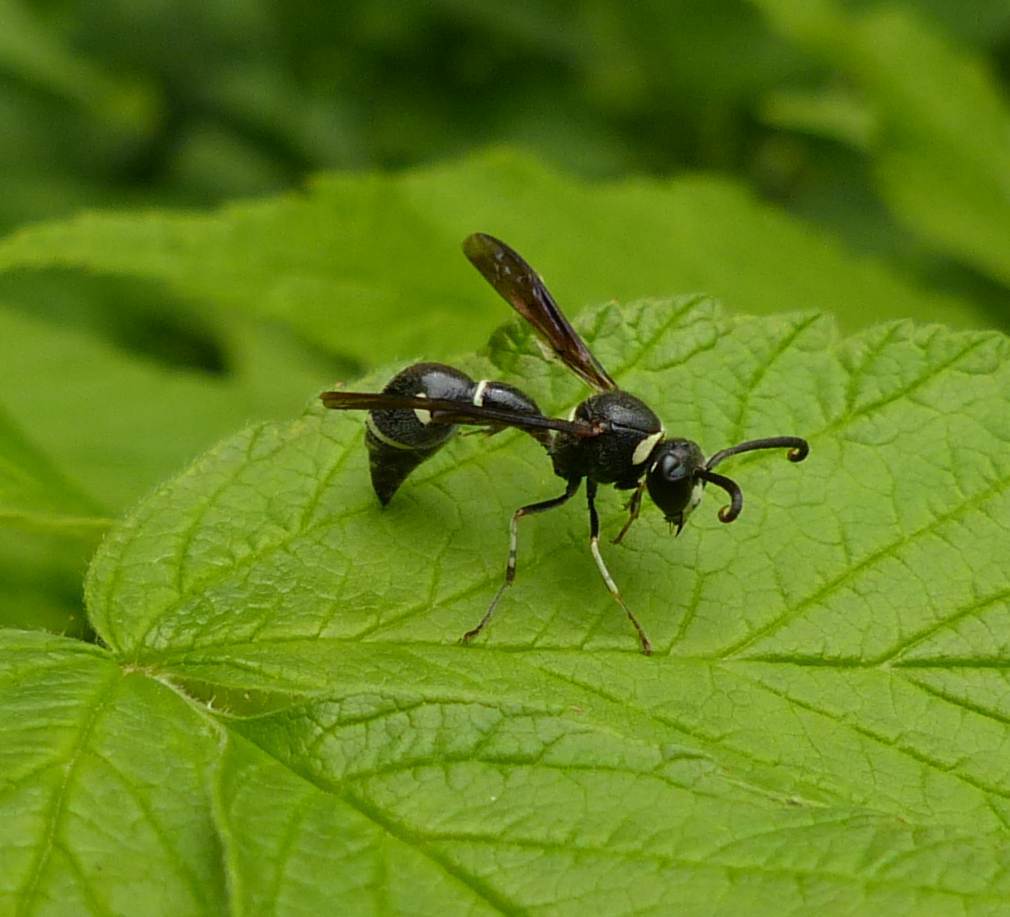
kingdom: Animalia
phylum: Arthropoda
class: Insecta
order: Hymenoptera
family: Vespidae
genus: Eumenes
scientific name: Eumenes fraternus
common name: Fraternal potter wasp
